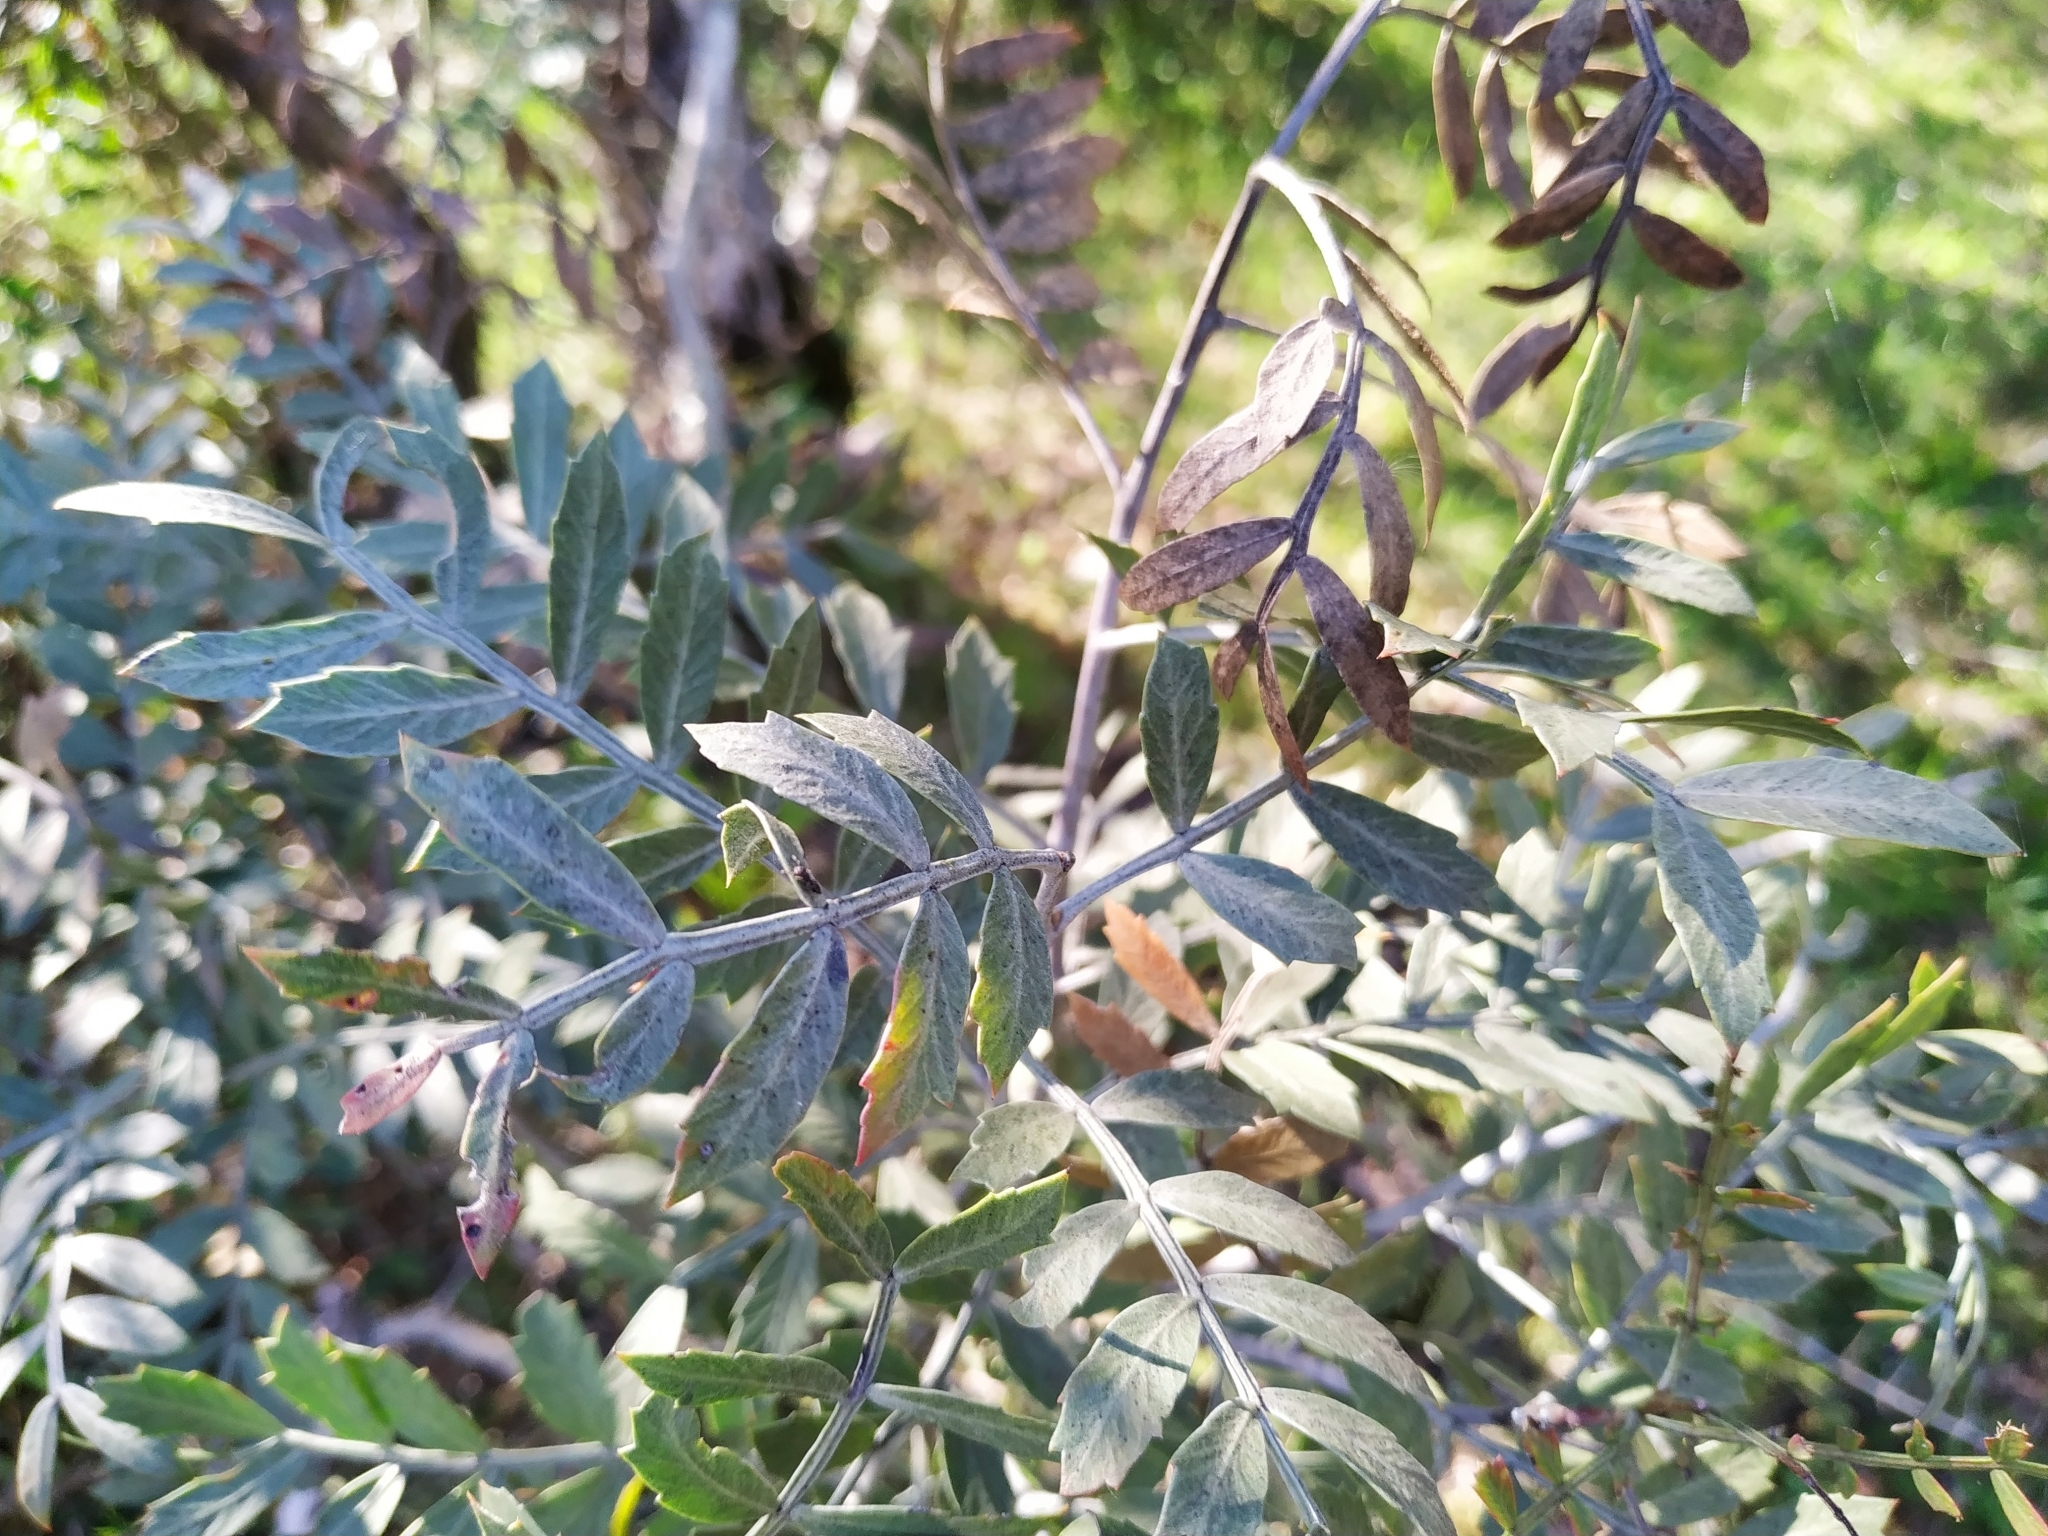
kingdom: Plantae
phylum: Tracheophyta
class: Magnoliopsida
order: Sapindales
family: Anacardiaceae
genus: Schinus
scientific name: Schinus lentiscifolia
